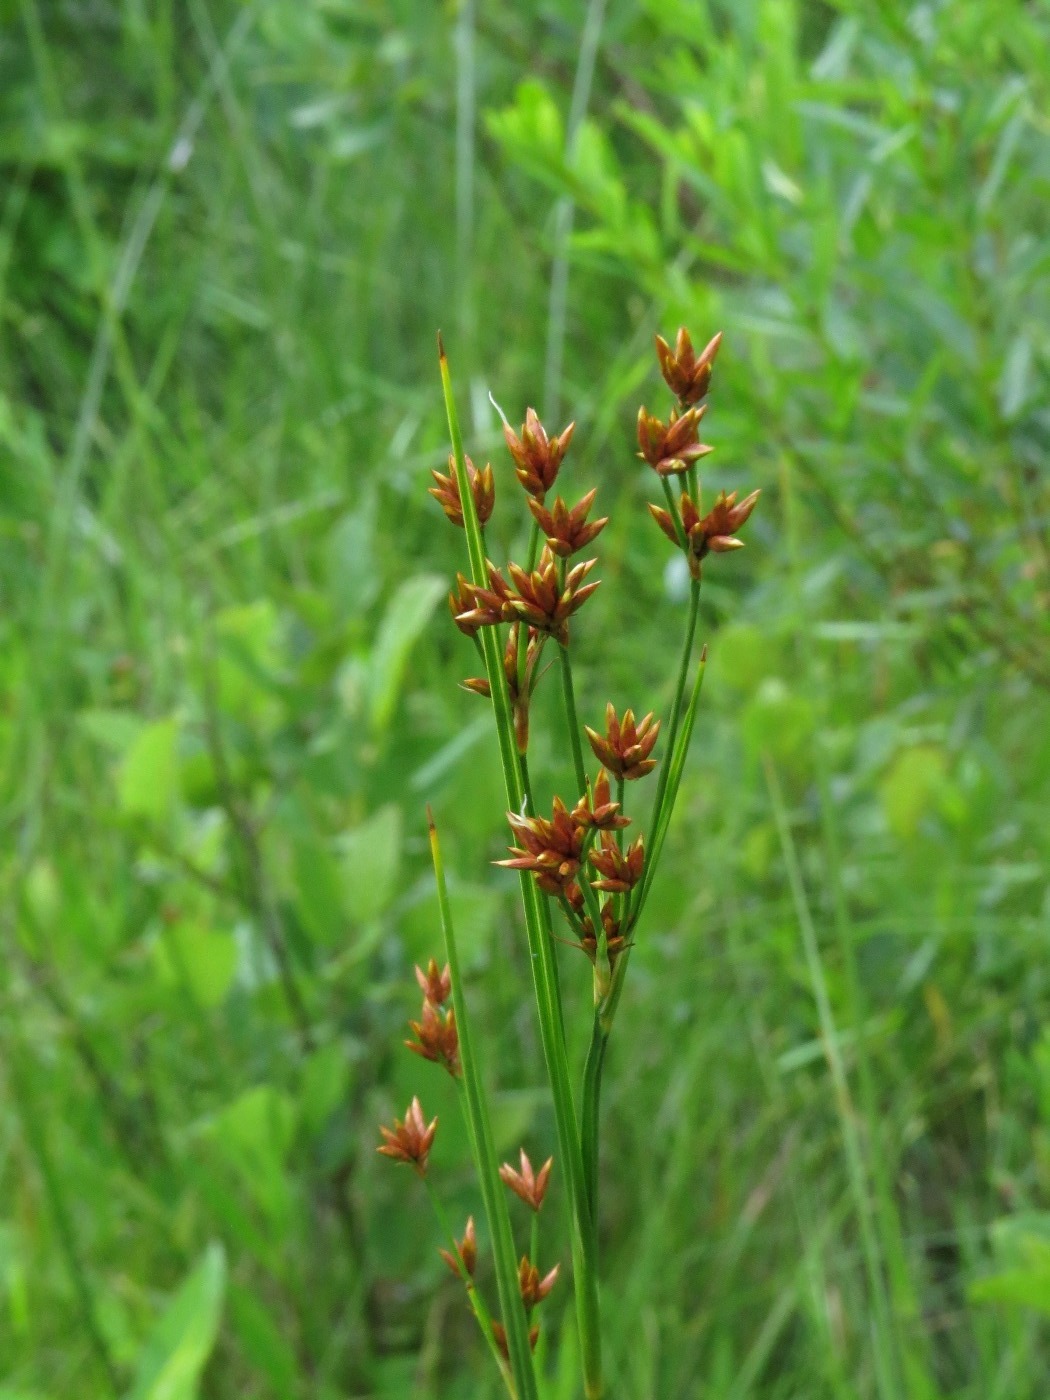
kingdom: Plantae
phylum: Tracheophyta
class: Liliopsida
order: Poales
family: Cyperaceae
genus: Rhynchospora
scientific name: Rhynchospora capitellata
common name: Brownish beaksedge
